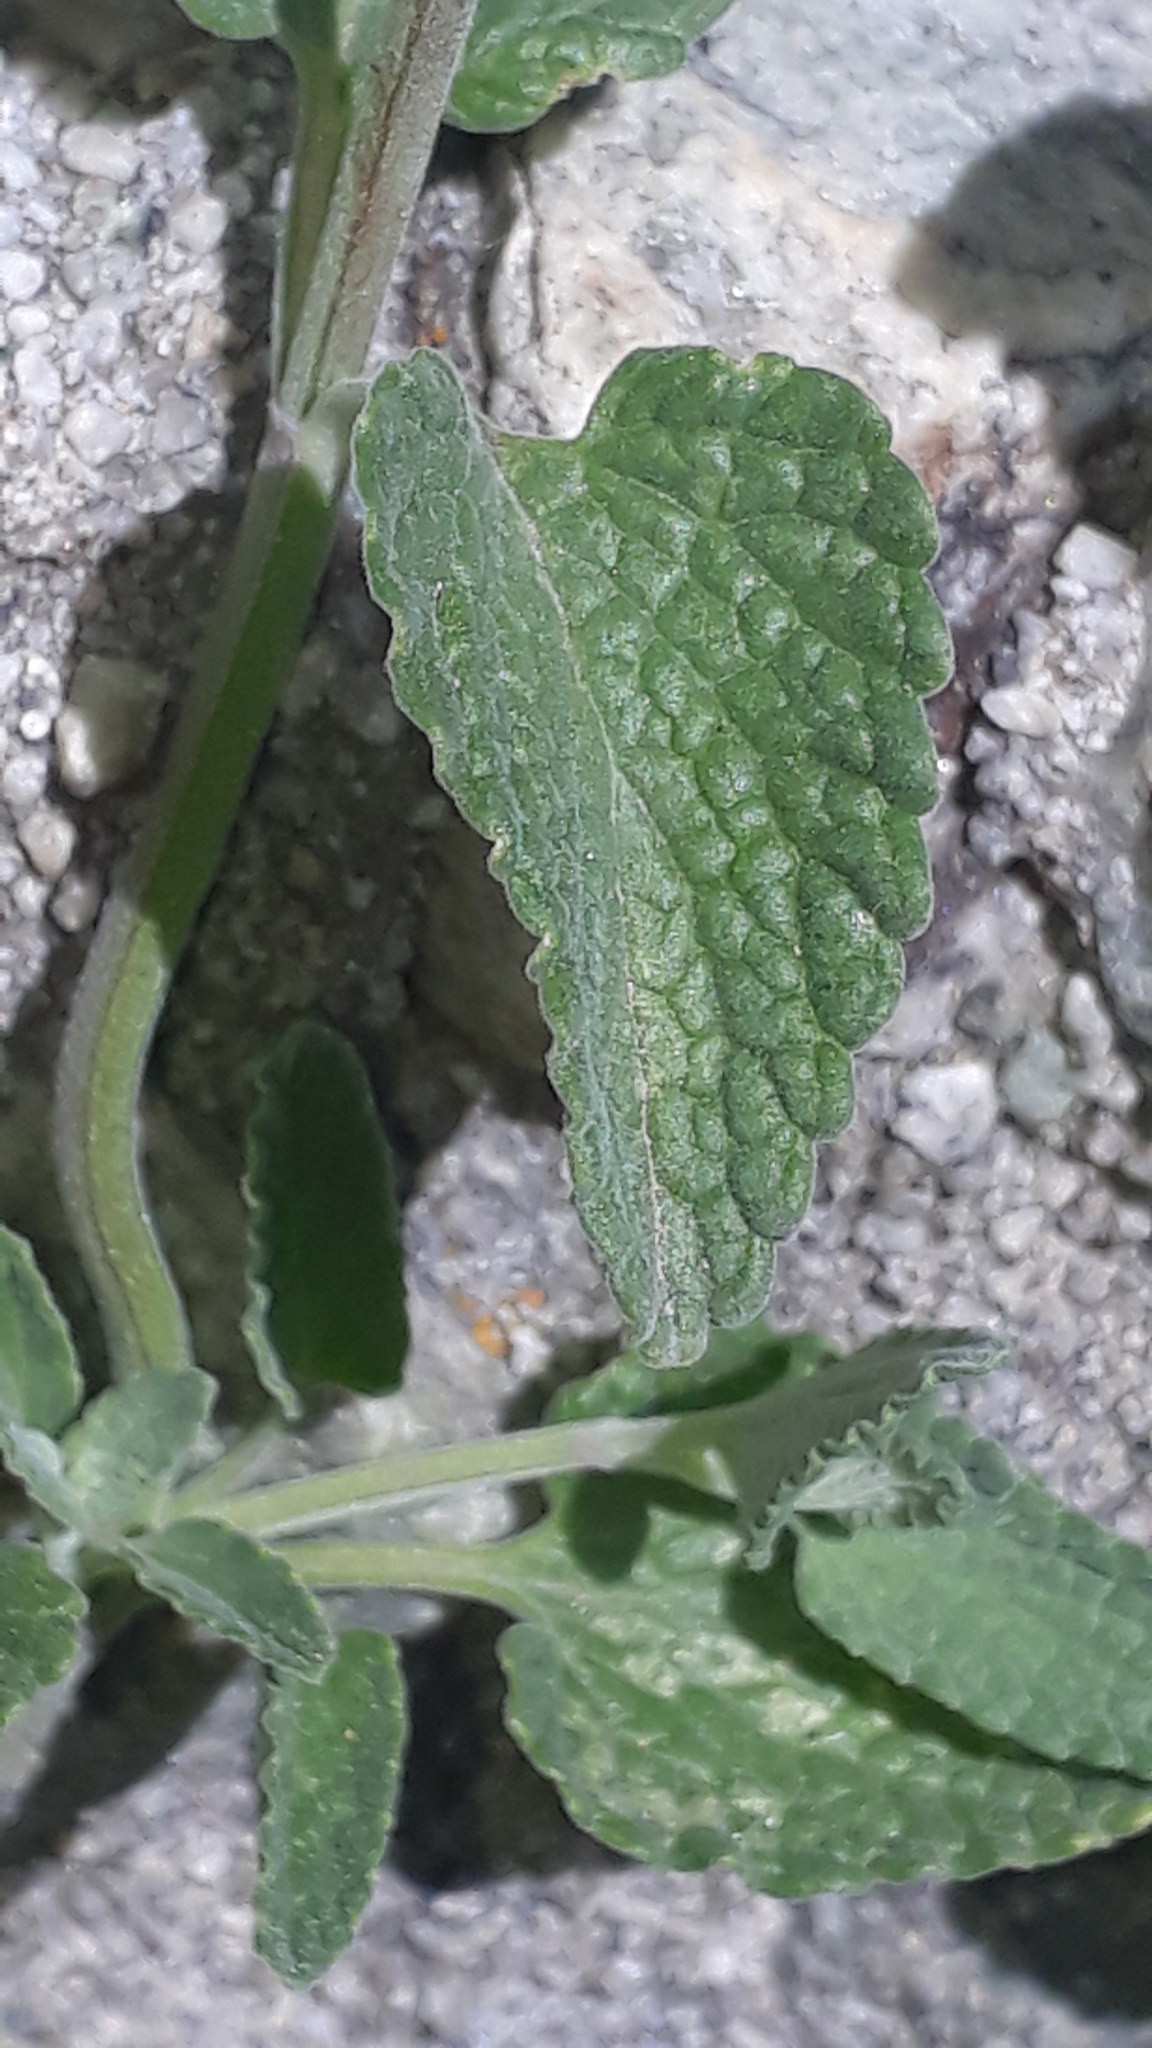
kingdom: Plantae
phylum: Tracheophyta
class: Magnoliopsida
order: Lamiales
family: Lamiaceae
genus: Nepeta
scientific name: Nepeta racemosa
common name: Raceme catnip
